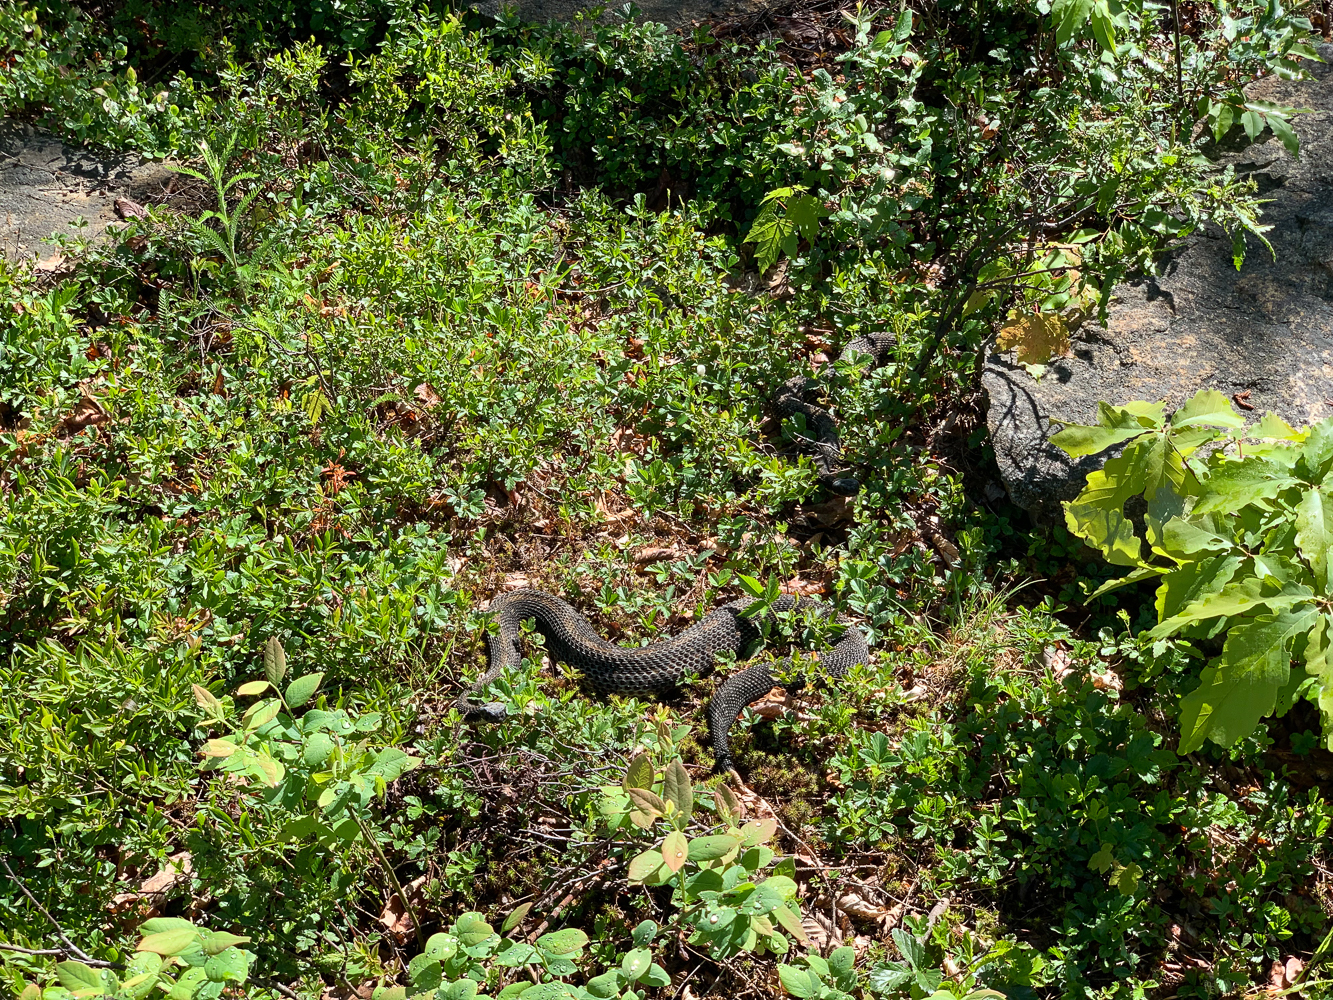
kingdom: Animalia
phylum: Chordata
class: Squamata
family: Viperidae
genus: Crotalus
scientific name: Crotalus horridus
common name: Timber rattlesnake
